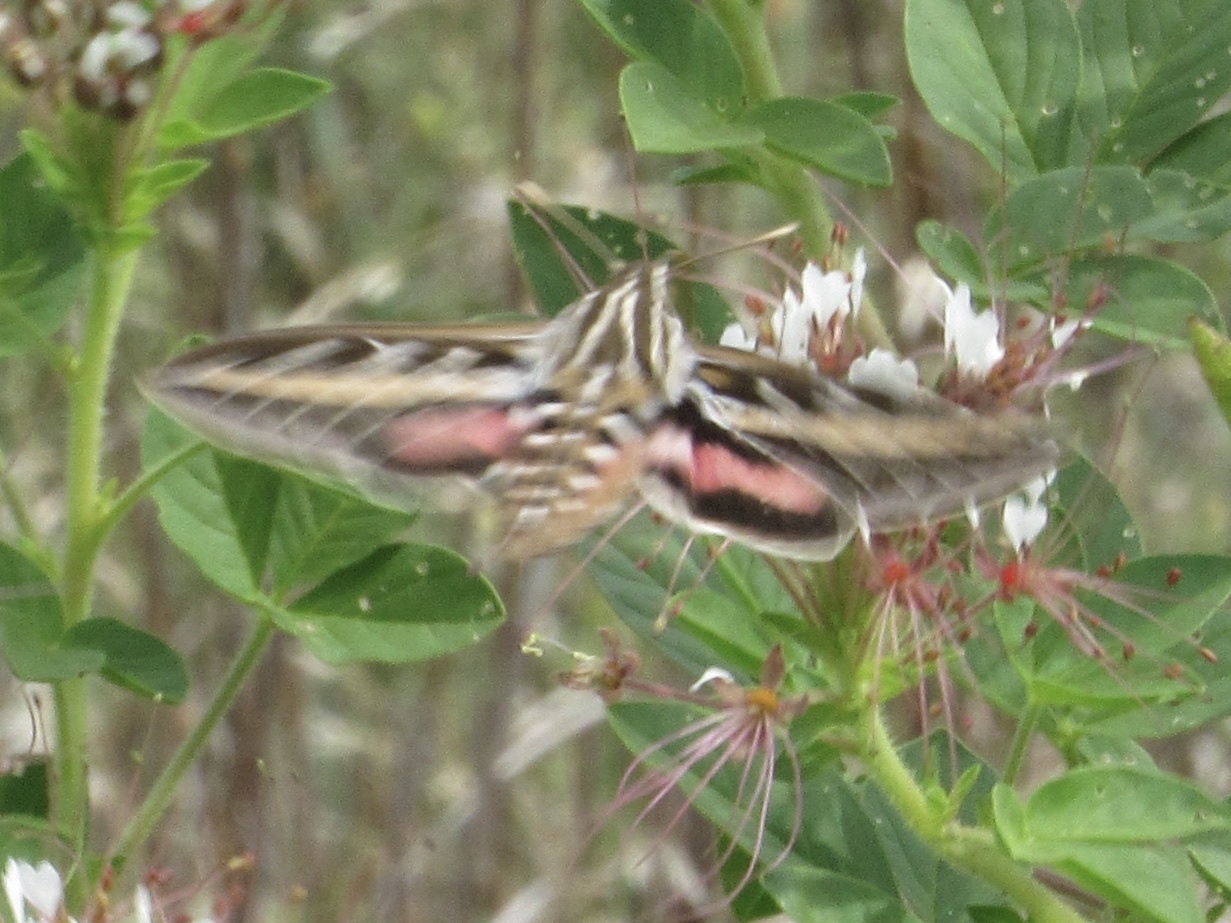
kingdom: Animalia
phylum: Arthropoda
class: Insecta
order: Lepidoptera
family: Sphingidae
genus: Hyles
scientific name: Hyles lineata
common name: White-lined sphinx
